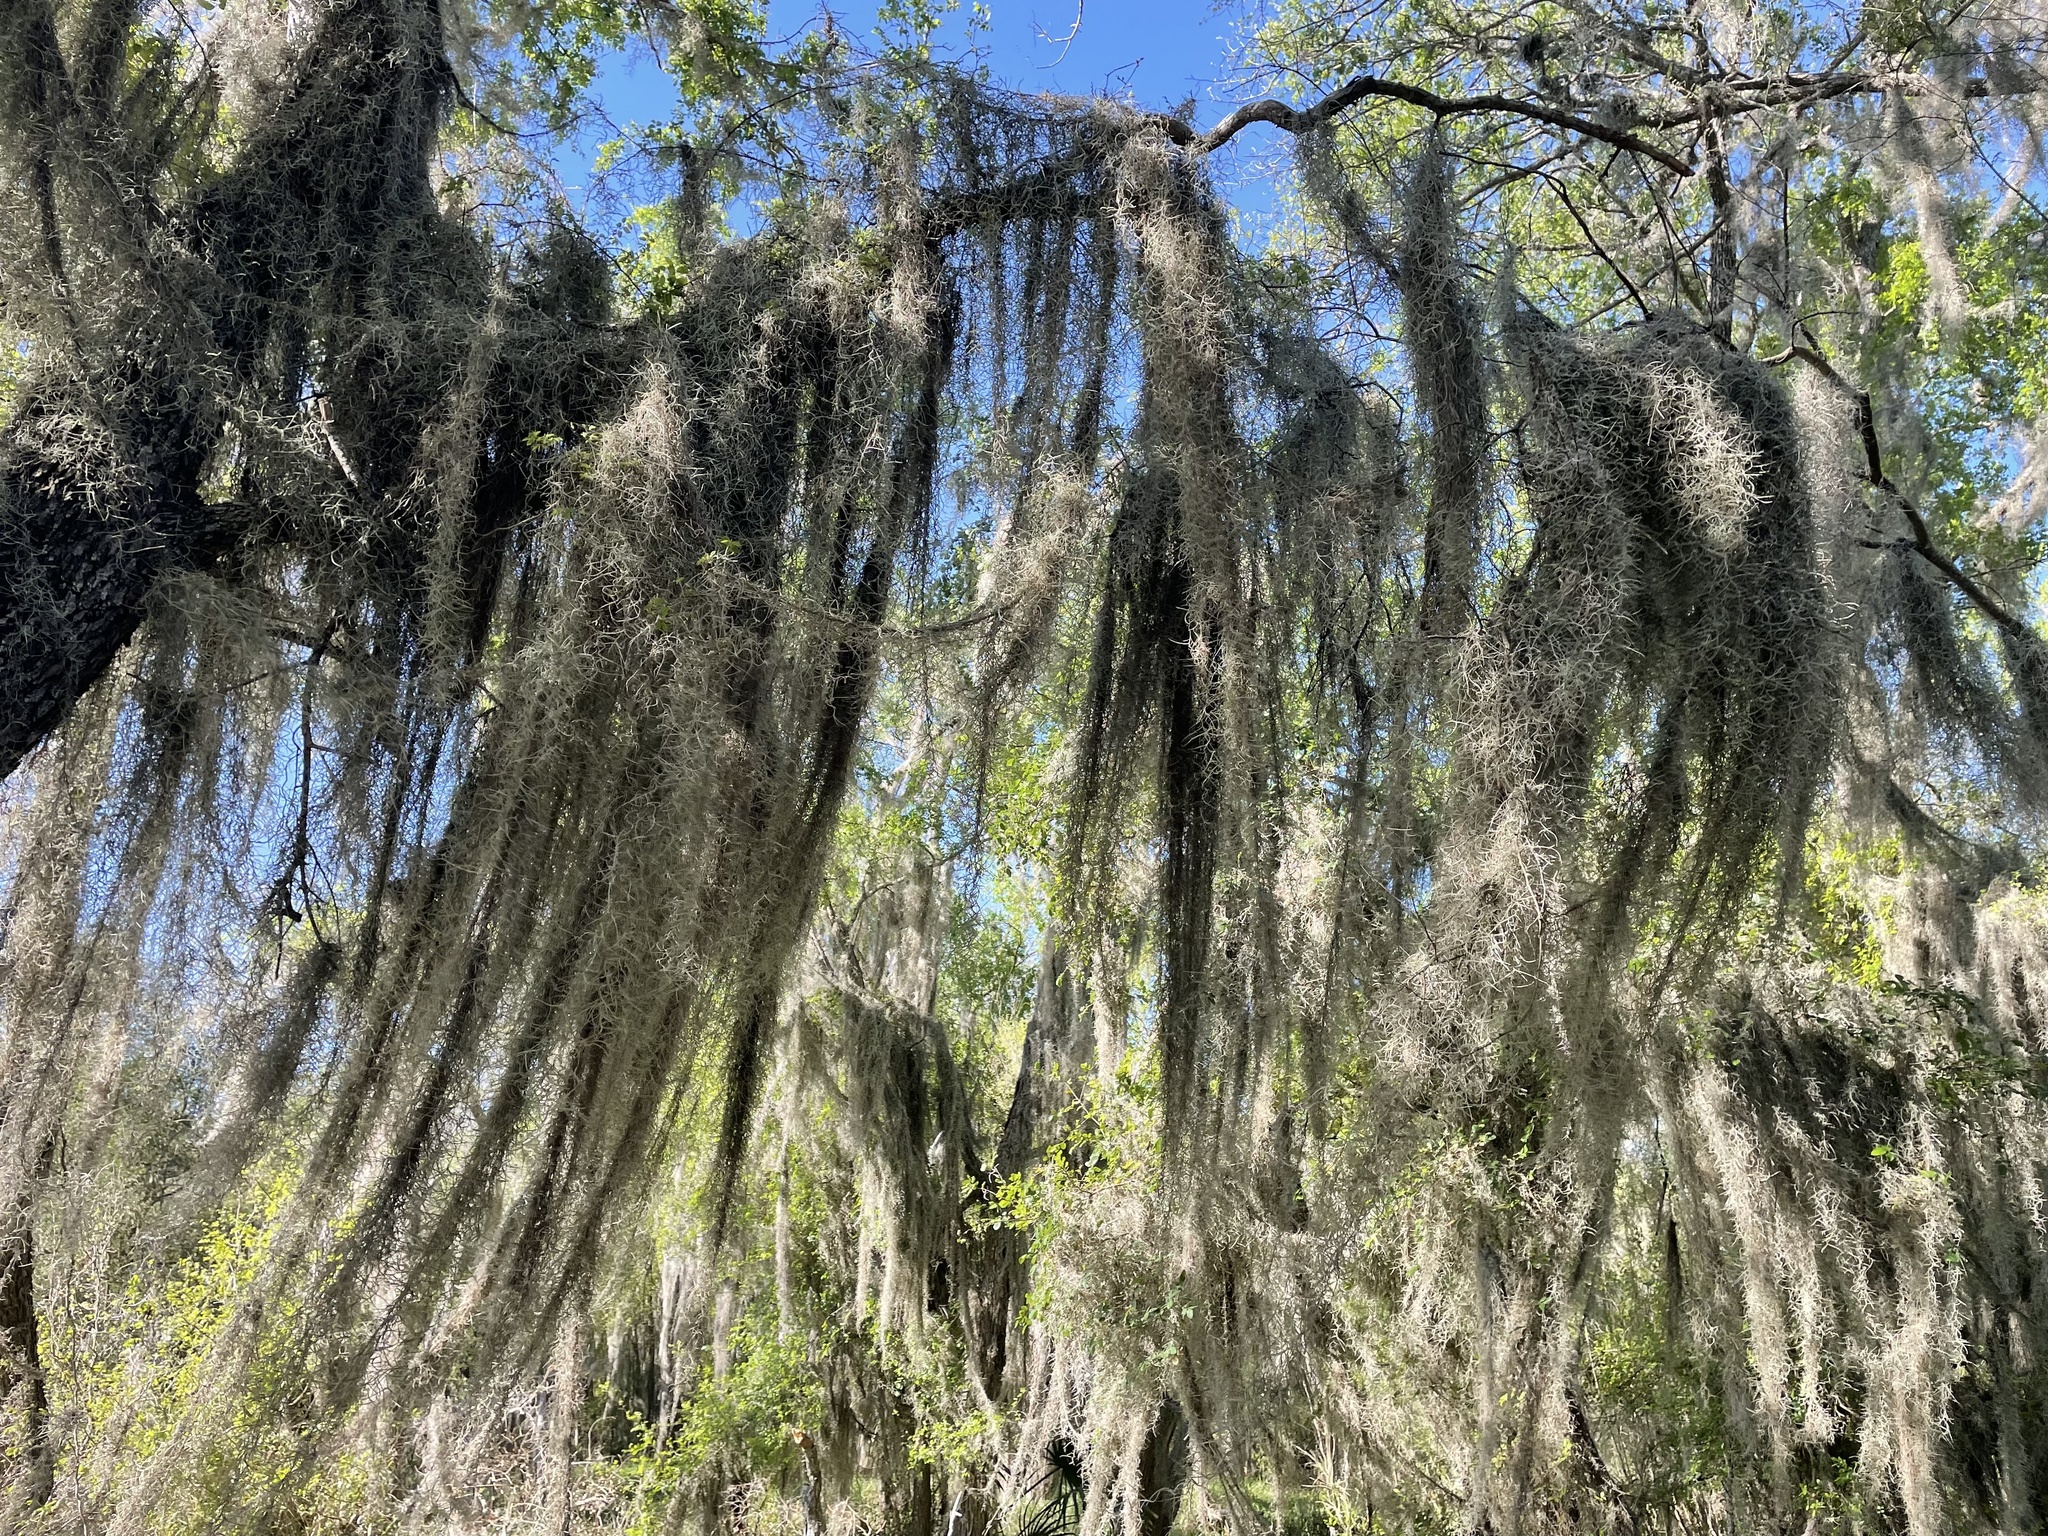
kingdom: Plantae
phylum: Tracheophyta
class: Liliopsida
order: Poales
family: Bromeliaceae
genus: Tillandsia
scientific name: Tillandsia usneoides
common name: Spanish moss
